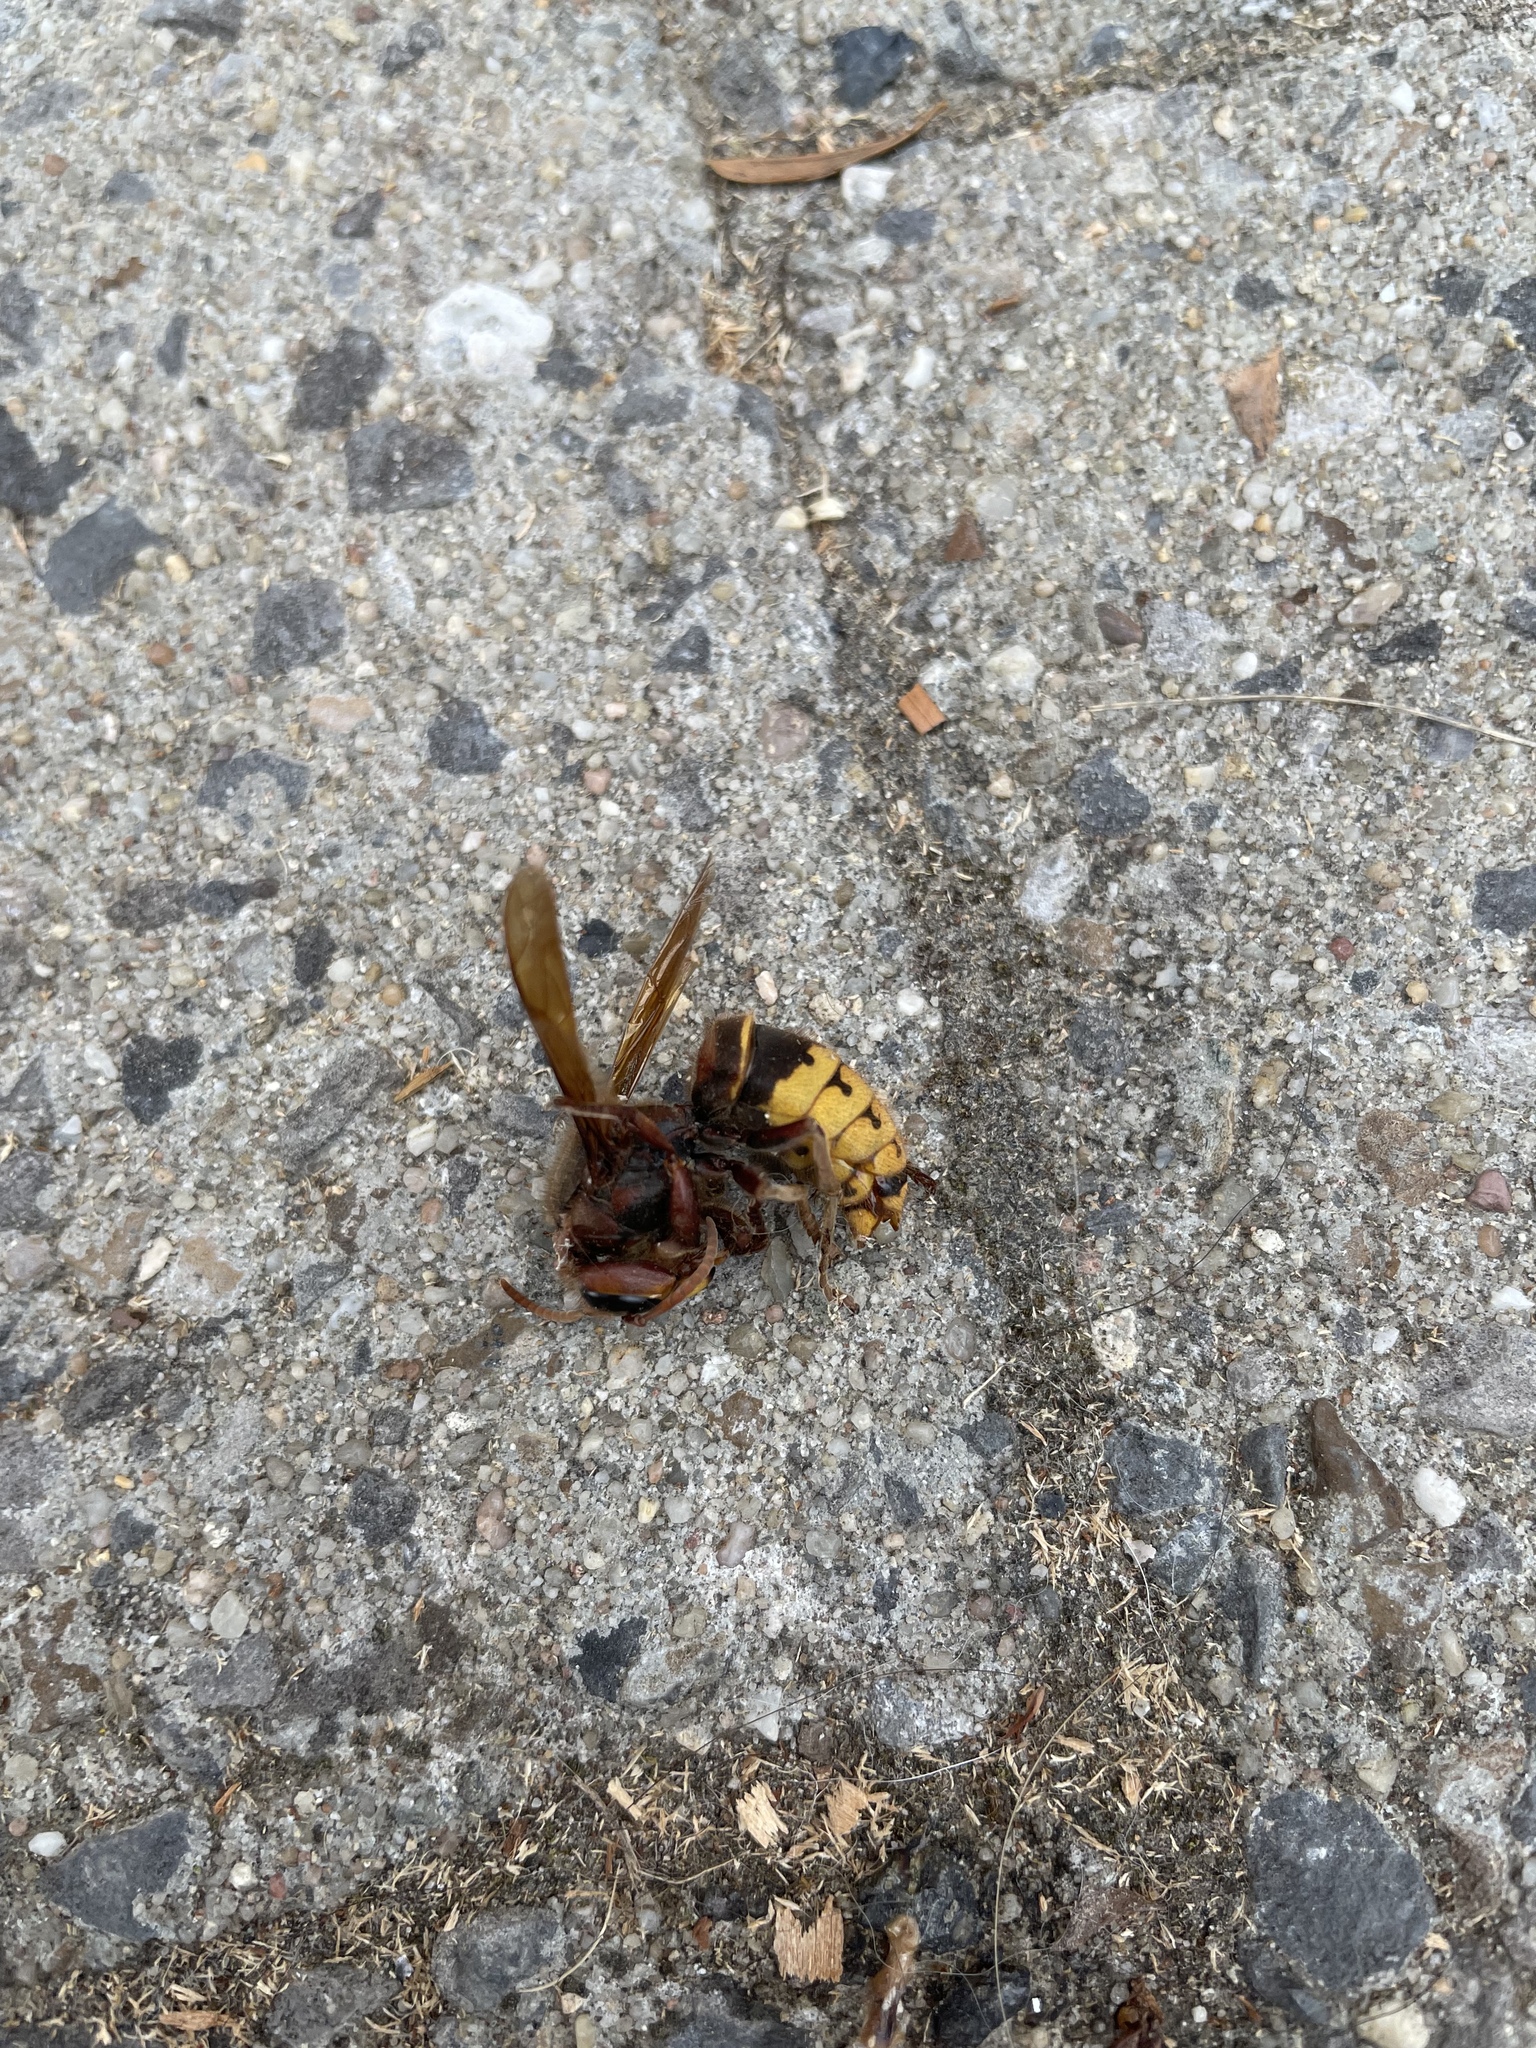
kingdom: Animalia
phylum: Arthropoda
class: Insecta
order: Hymenoptera
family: Vespidae
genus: Vespa
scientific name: Vespa crabro
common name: Hornet
